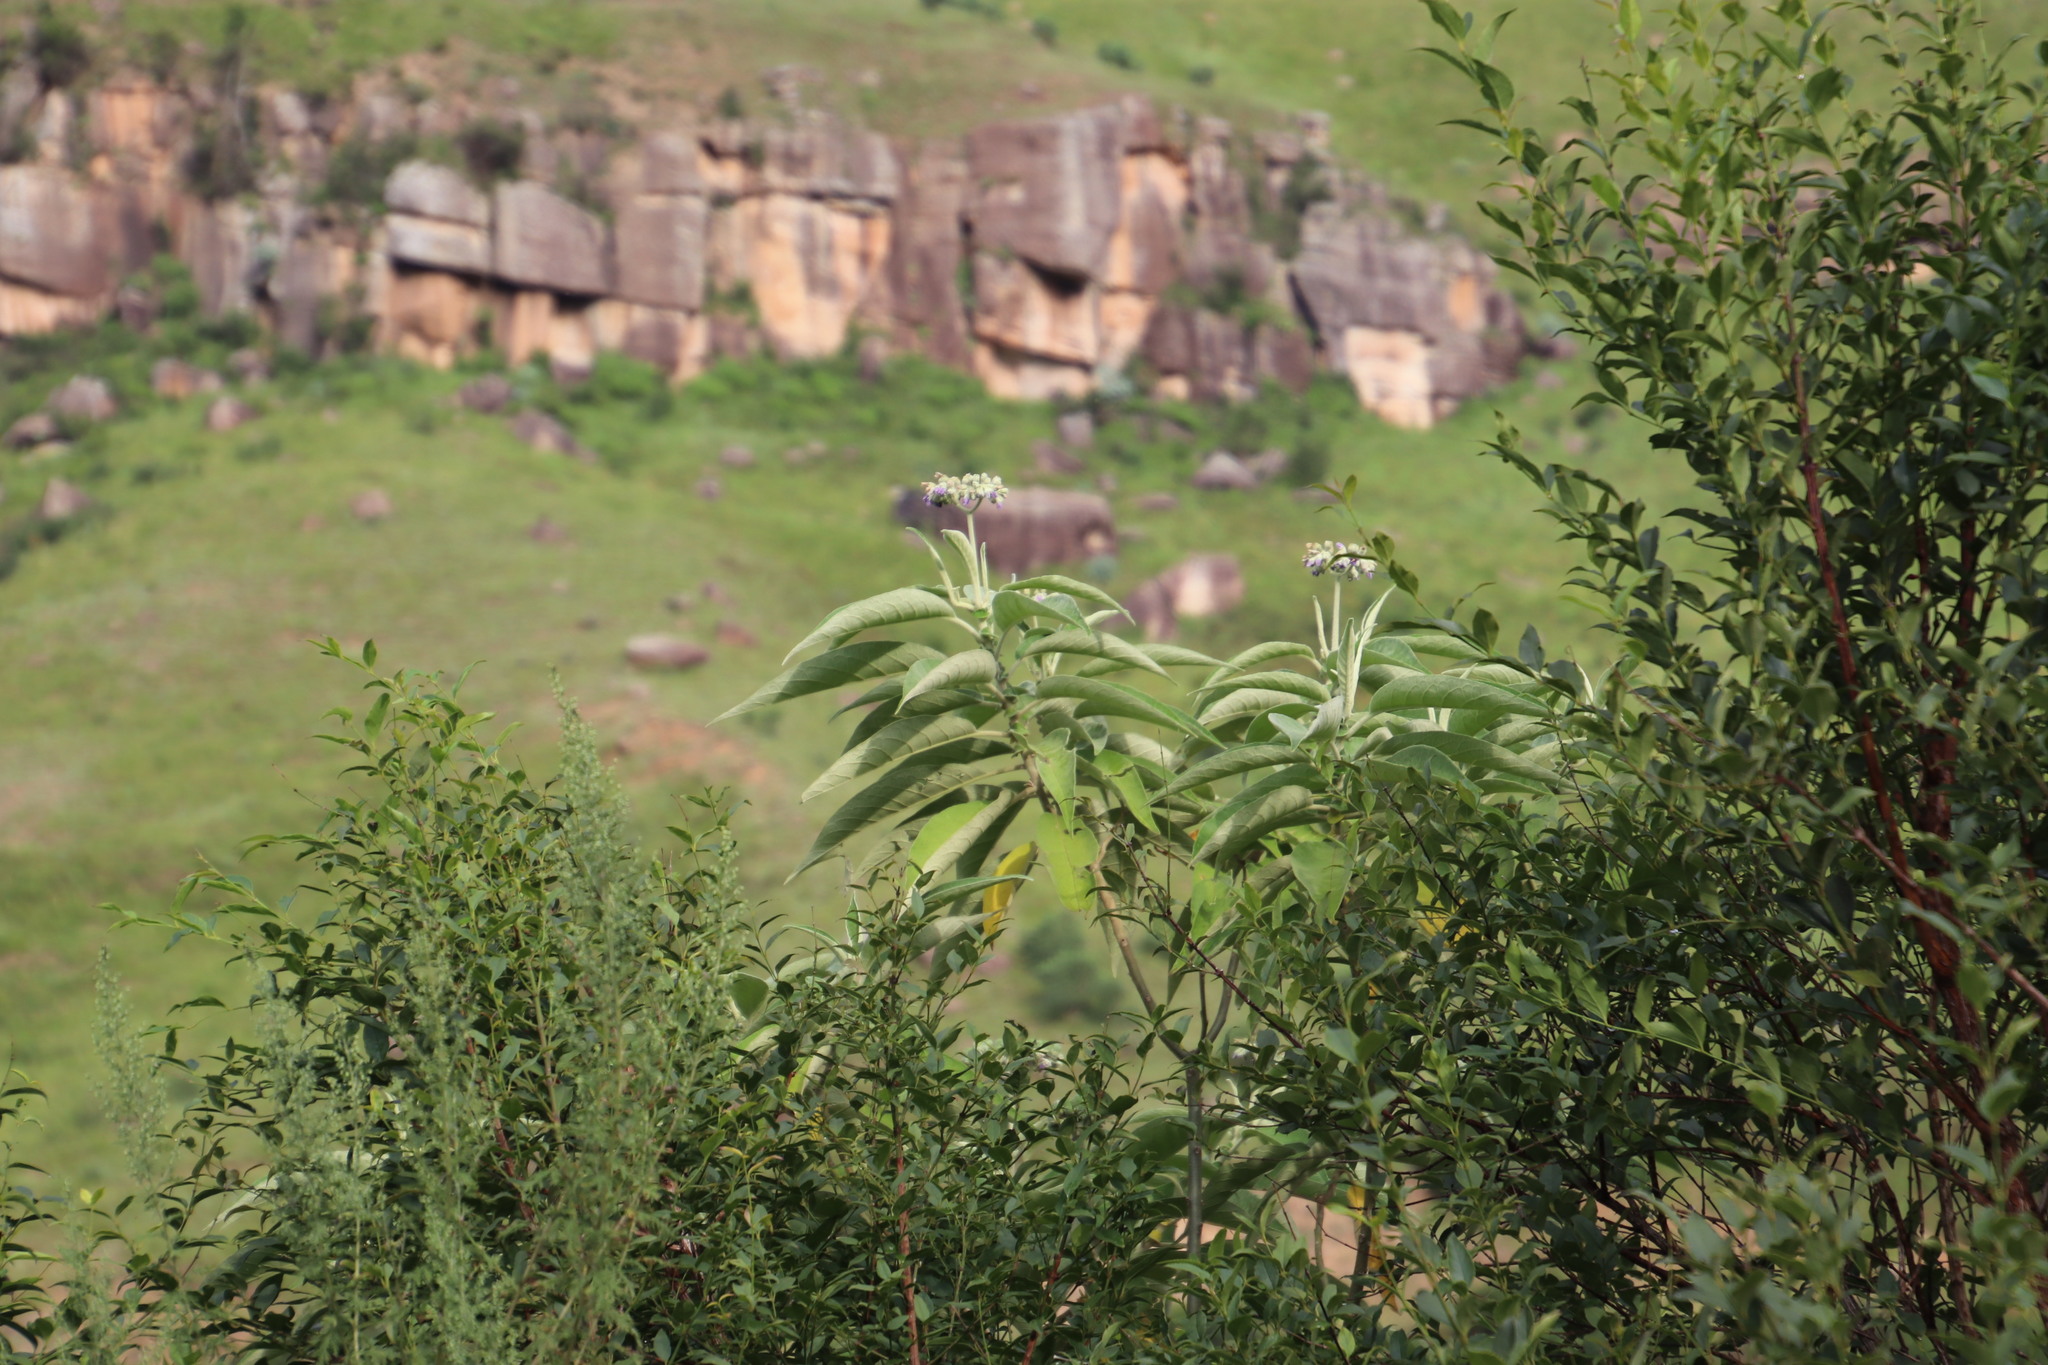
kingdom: Plantae
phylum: Tracheophyta
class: Magnoliopsida
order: Solanales
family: Solanaceae
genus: Solanum
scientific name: Solanum mauritianum
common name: Earleaf nightshade
